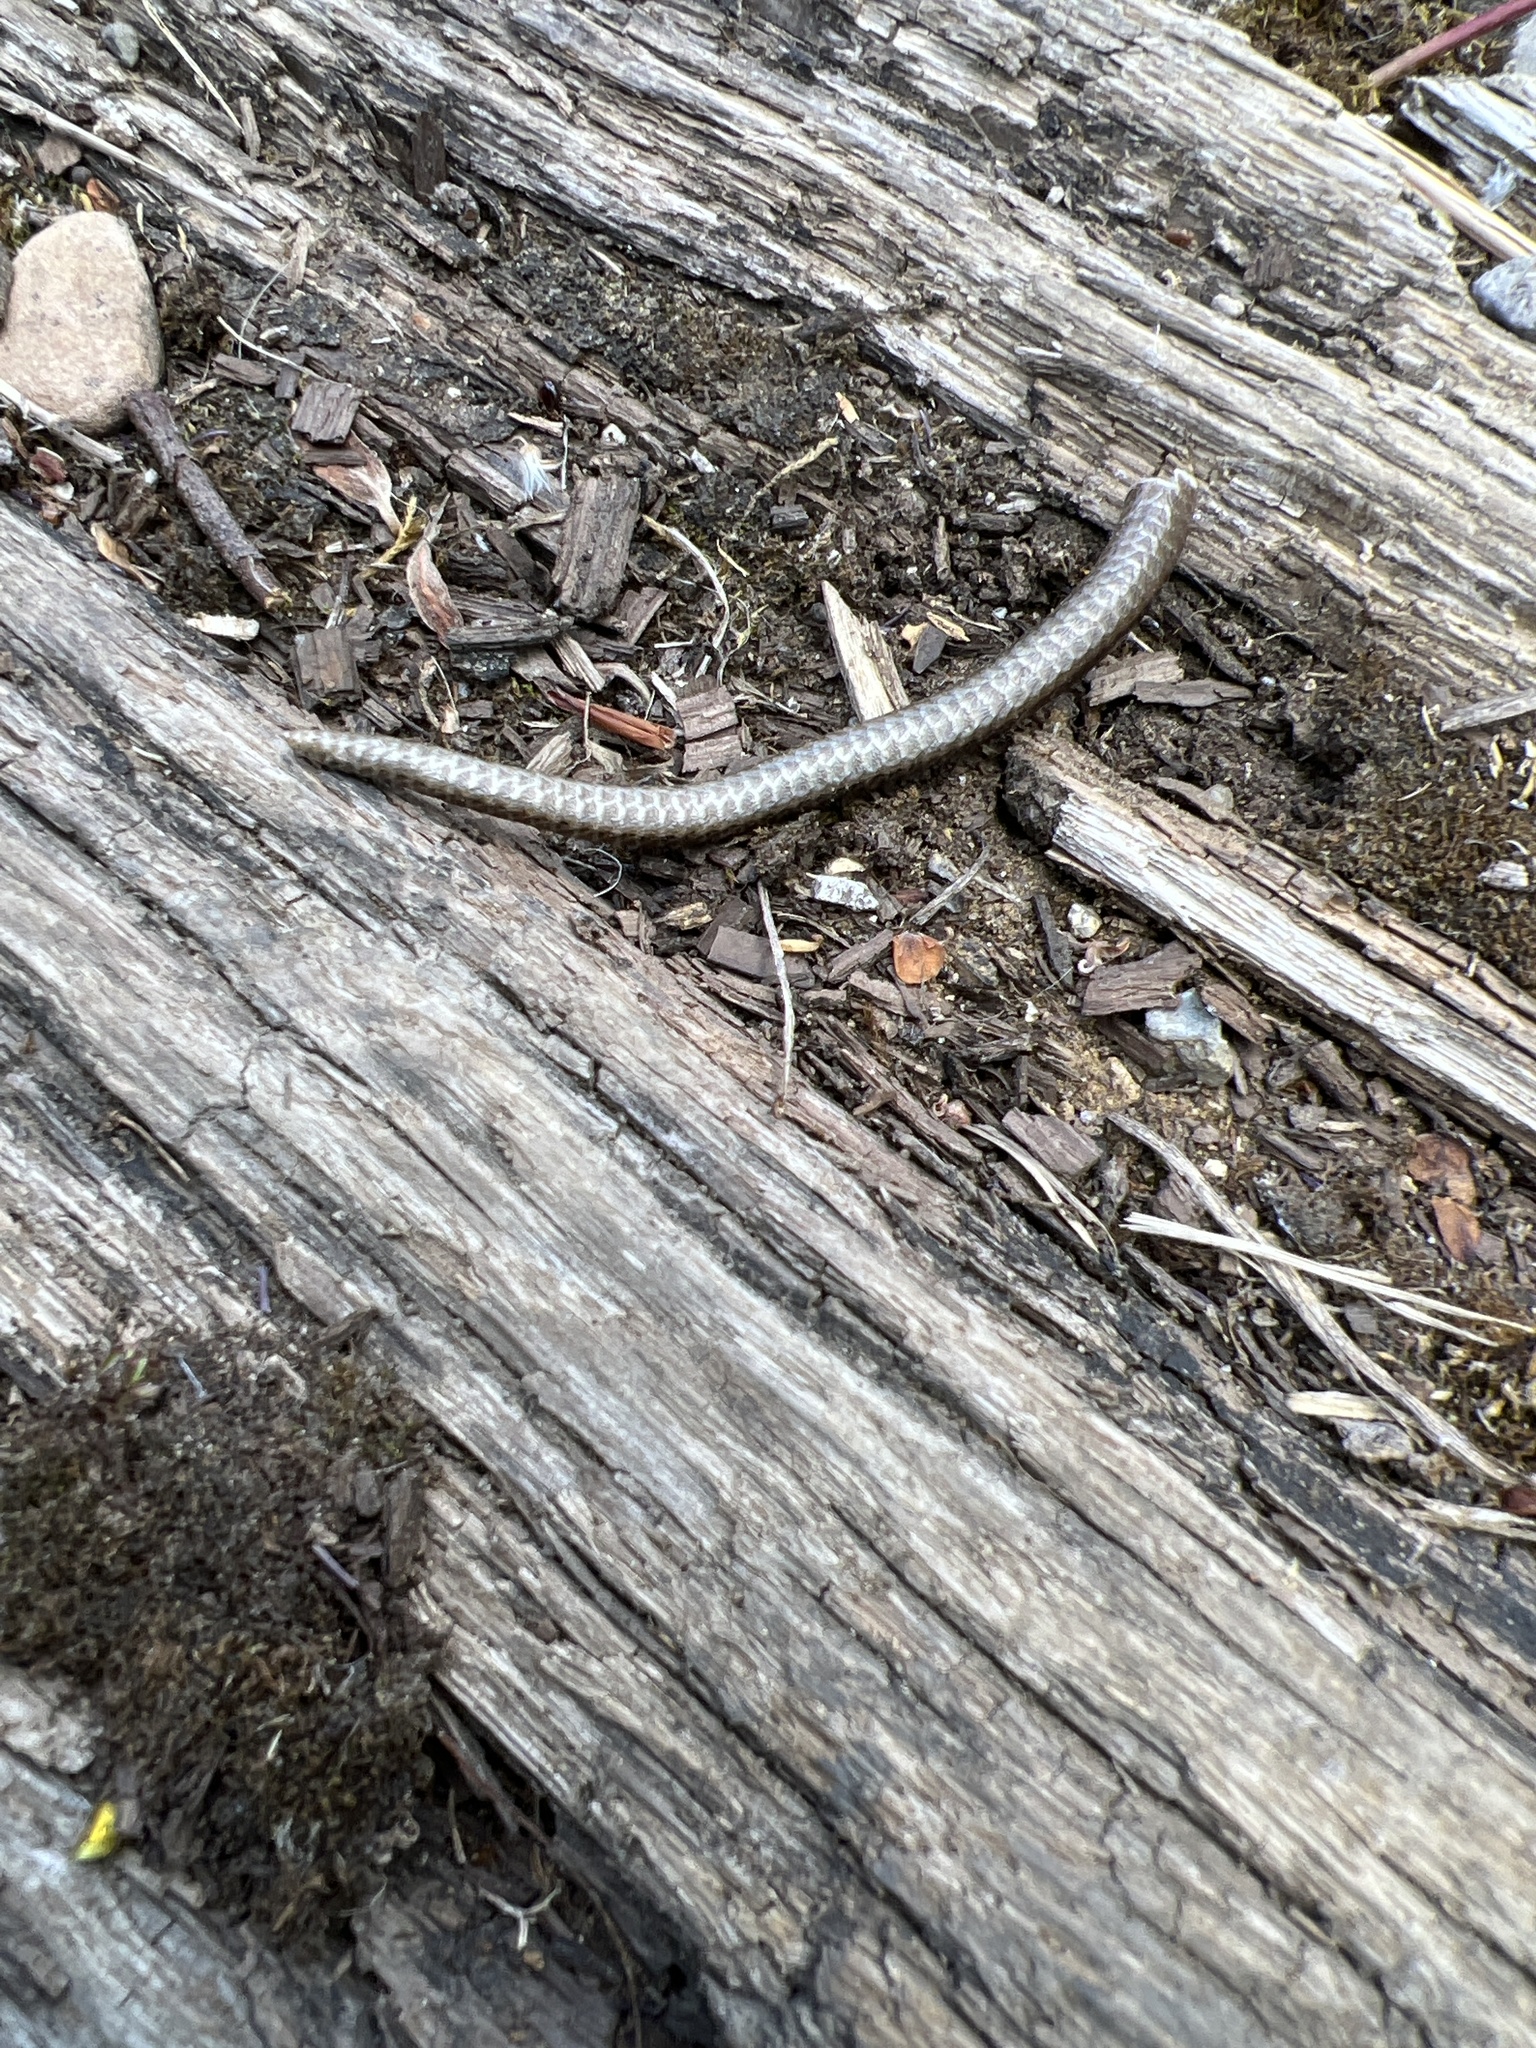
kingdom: Animalia
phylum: Chordata
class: Squamata
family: Anguidae
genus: Anguis
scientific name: Anguis fragilis
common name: Slow worm
